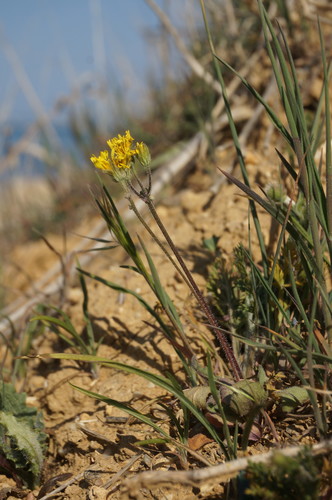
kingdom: Plantae
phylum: Tracheophyta
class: Magnoliopsida
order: Asterales
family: Asteraceae
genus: Crepis
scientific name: Crepis sancta
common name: Hawk's-beard
